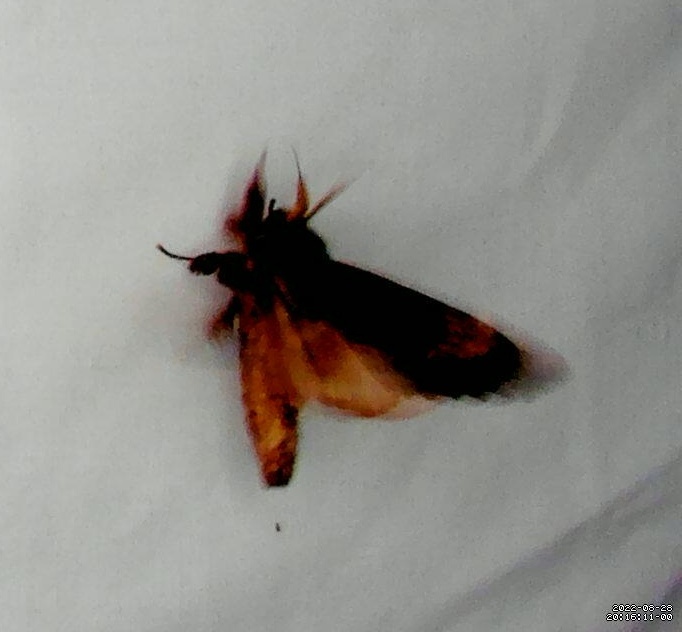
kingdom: Animalia
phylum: Arthropoda
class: Insecta
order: Lepidoptera
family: Notodontidae
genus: Sorama
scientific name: Sorama bicolor
